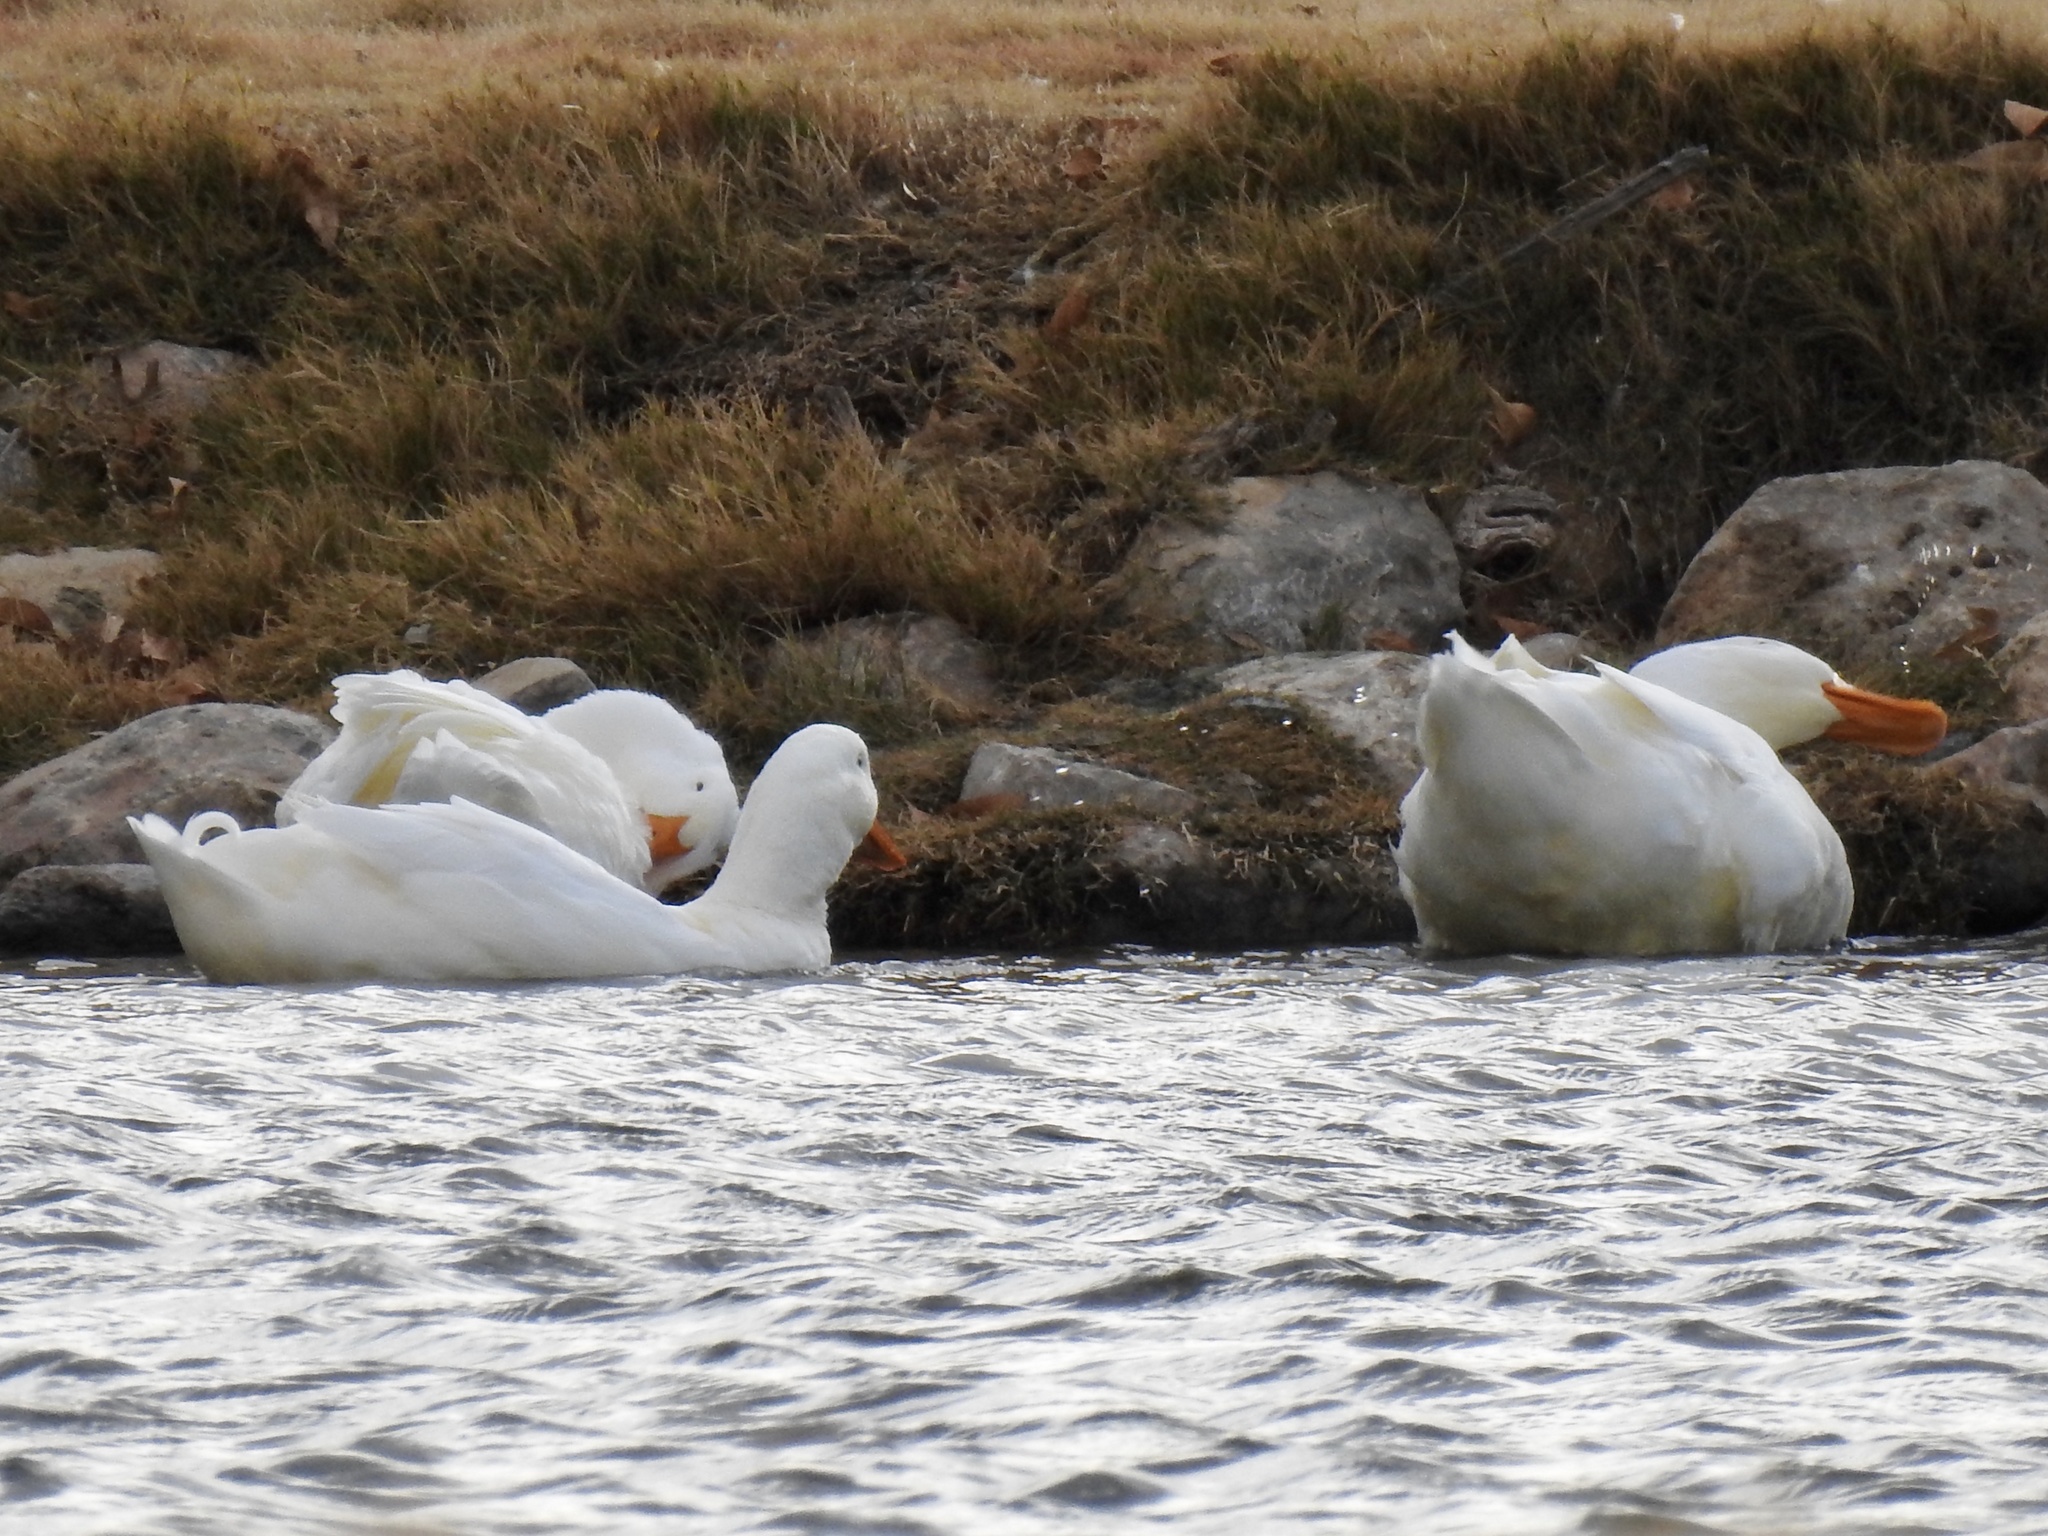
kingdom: Animalia
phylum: Chordata
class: Aves
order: Anseriformes
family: Anatidae
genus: Anas
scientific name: Anas platyrhynchos
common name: Mallard
